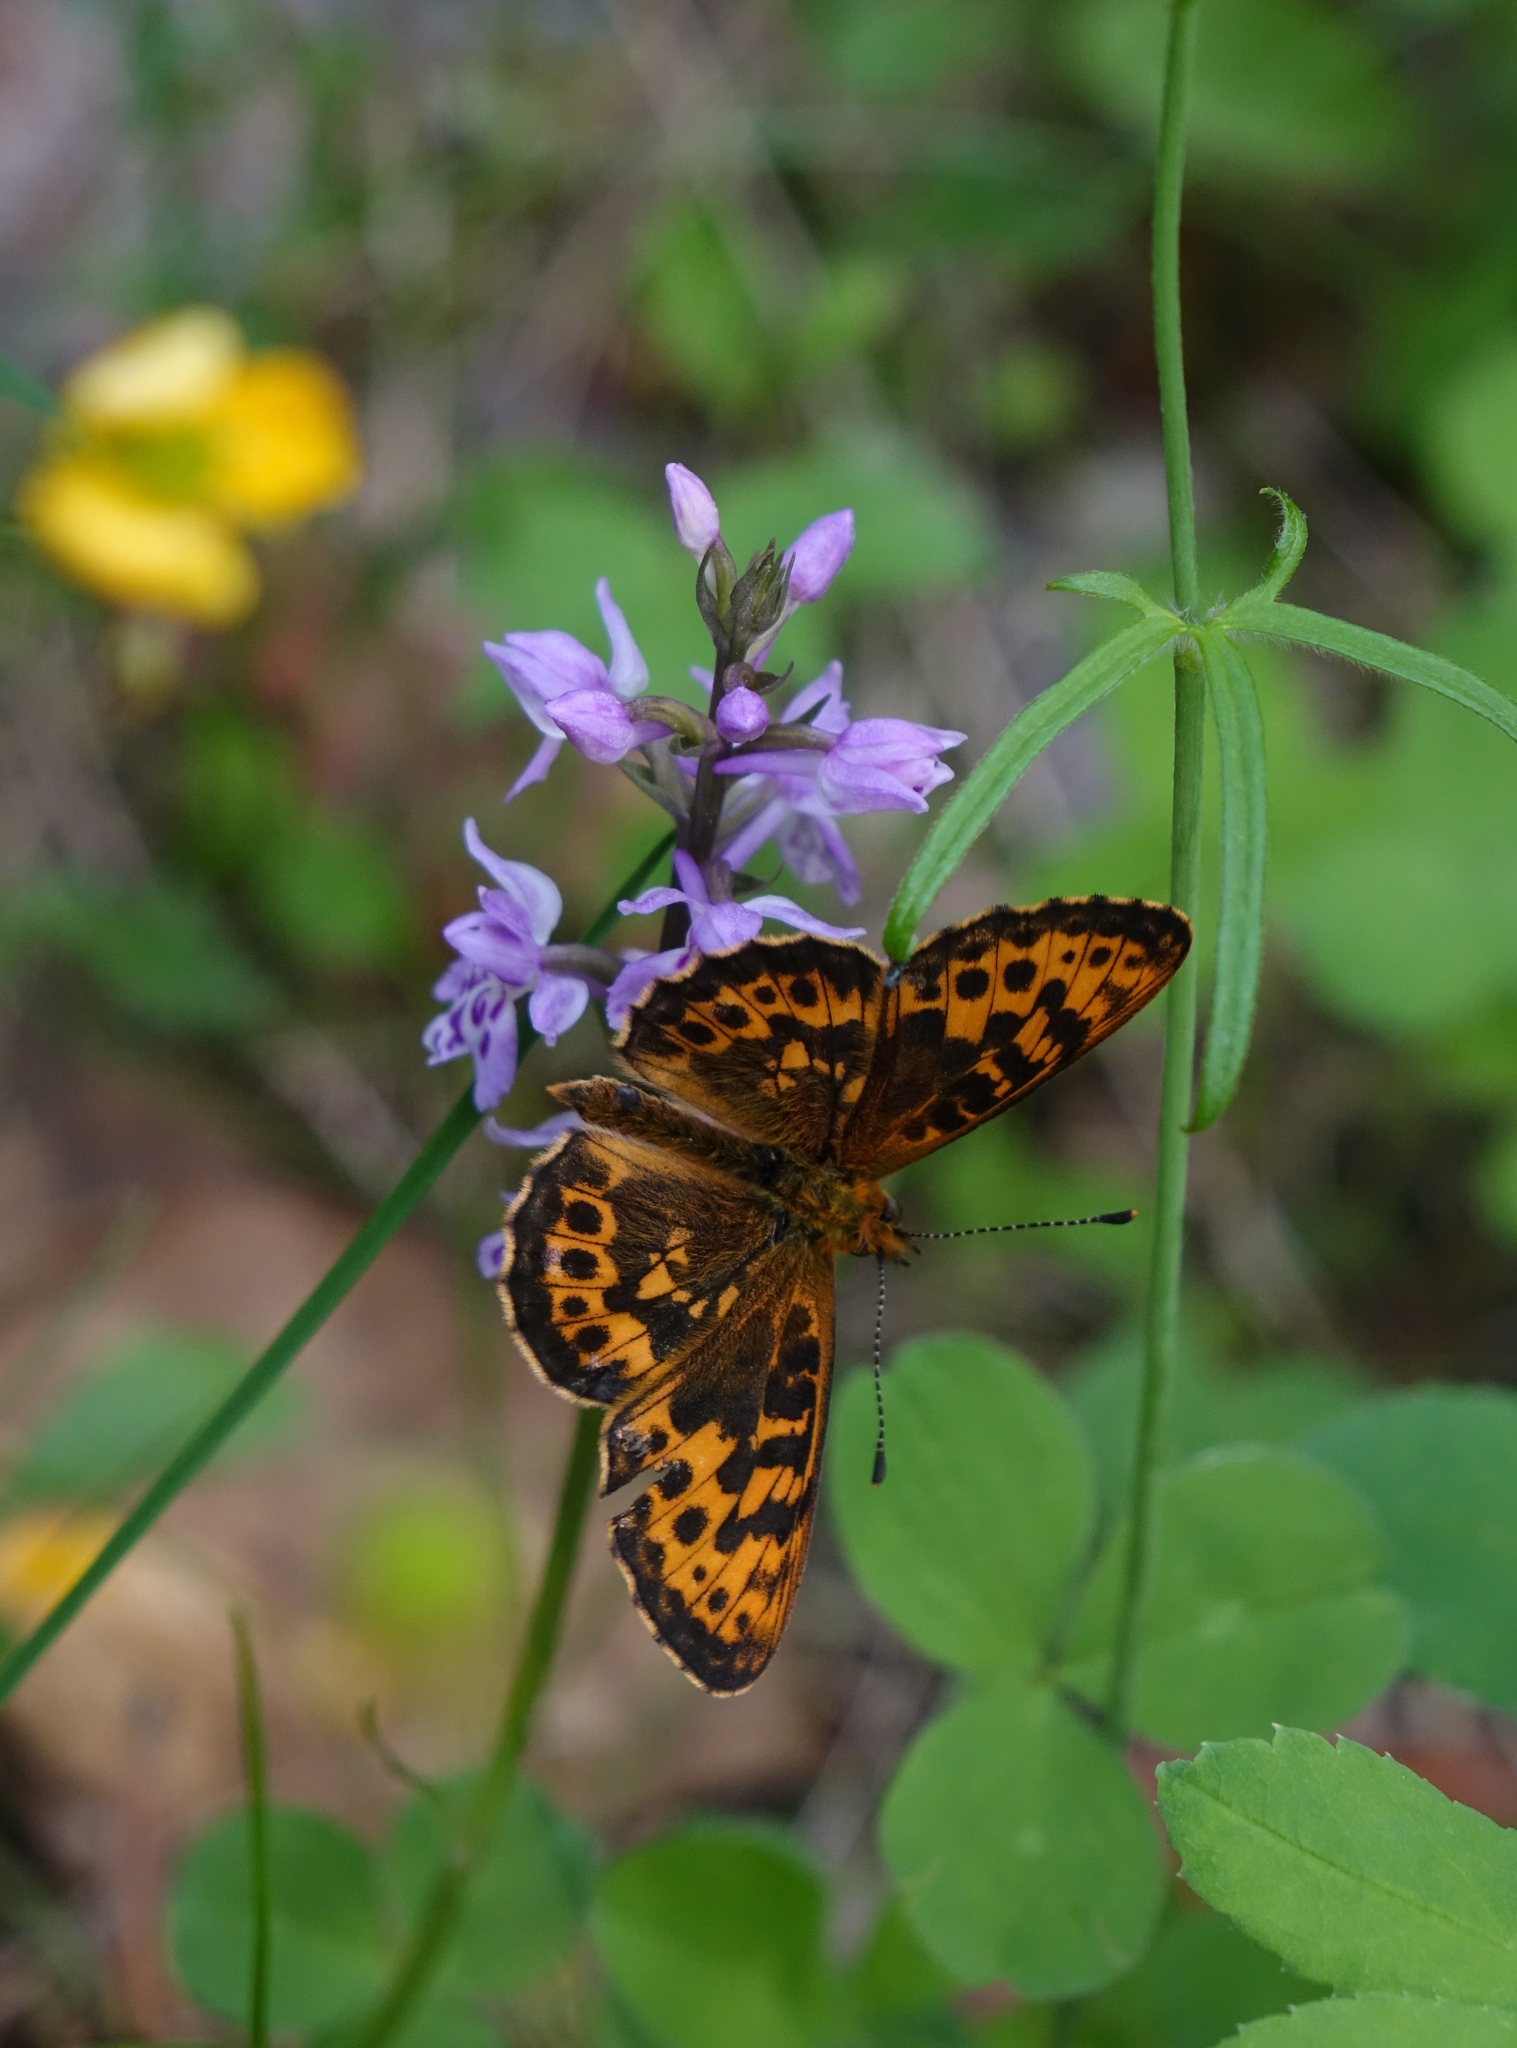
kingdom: Animalia
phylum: Arthropoda
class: Insecta
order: Lepidoptera
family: Nymphalidae
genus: Boloria
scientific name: Boloria thore
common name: Thor's fritillary
